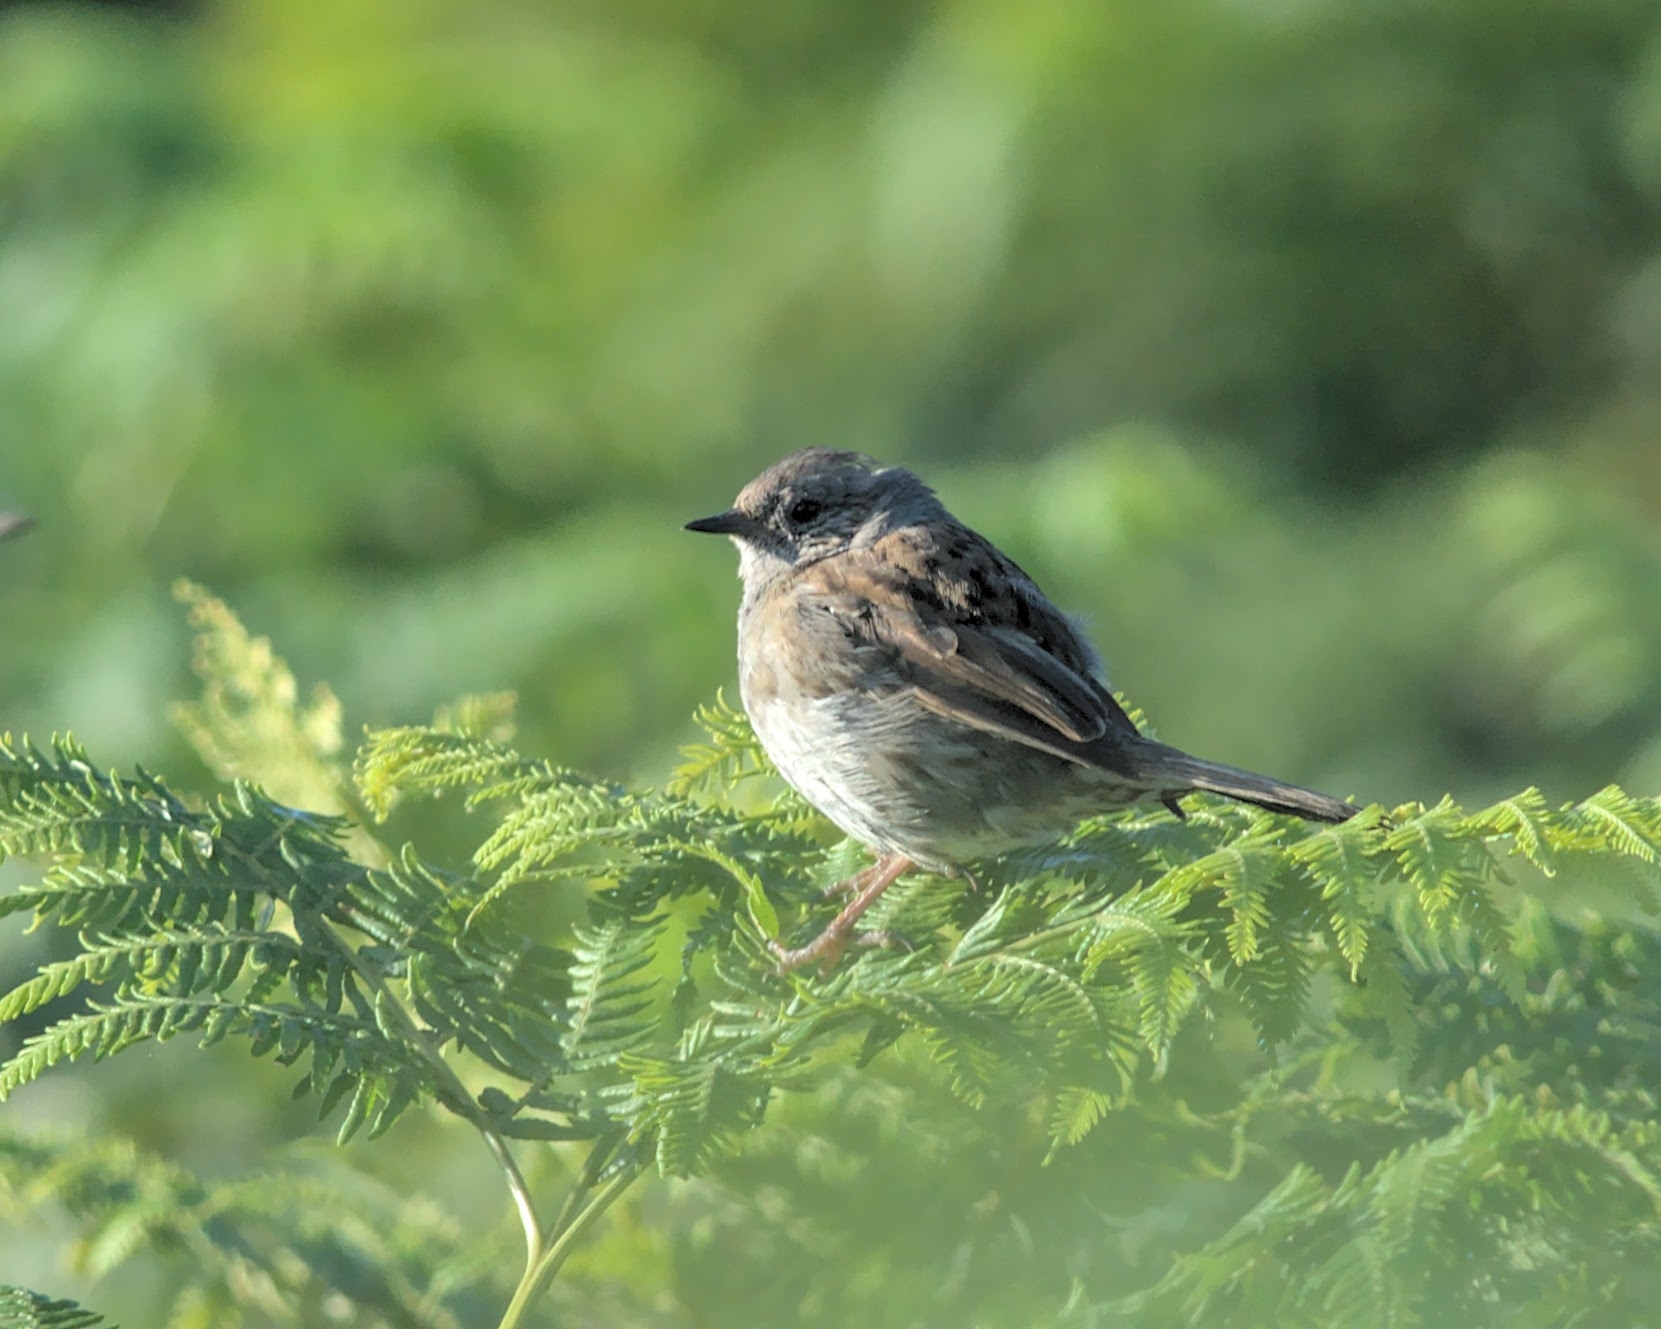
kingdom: Animalia
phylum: Chordata
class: Aves
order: Passeriformes
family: Prunellidae
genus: Prunella
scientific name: Prunella modularis
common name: Dunnock
